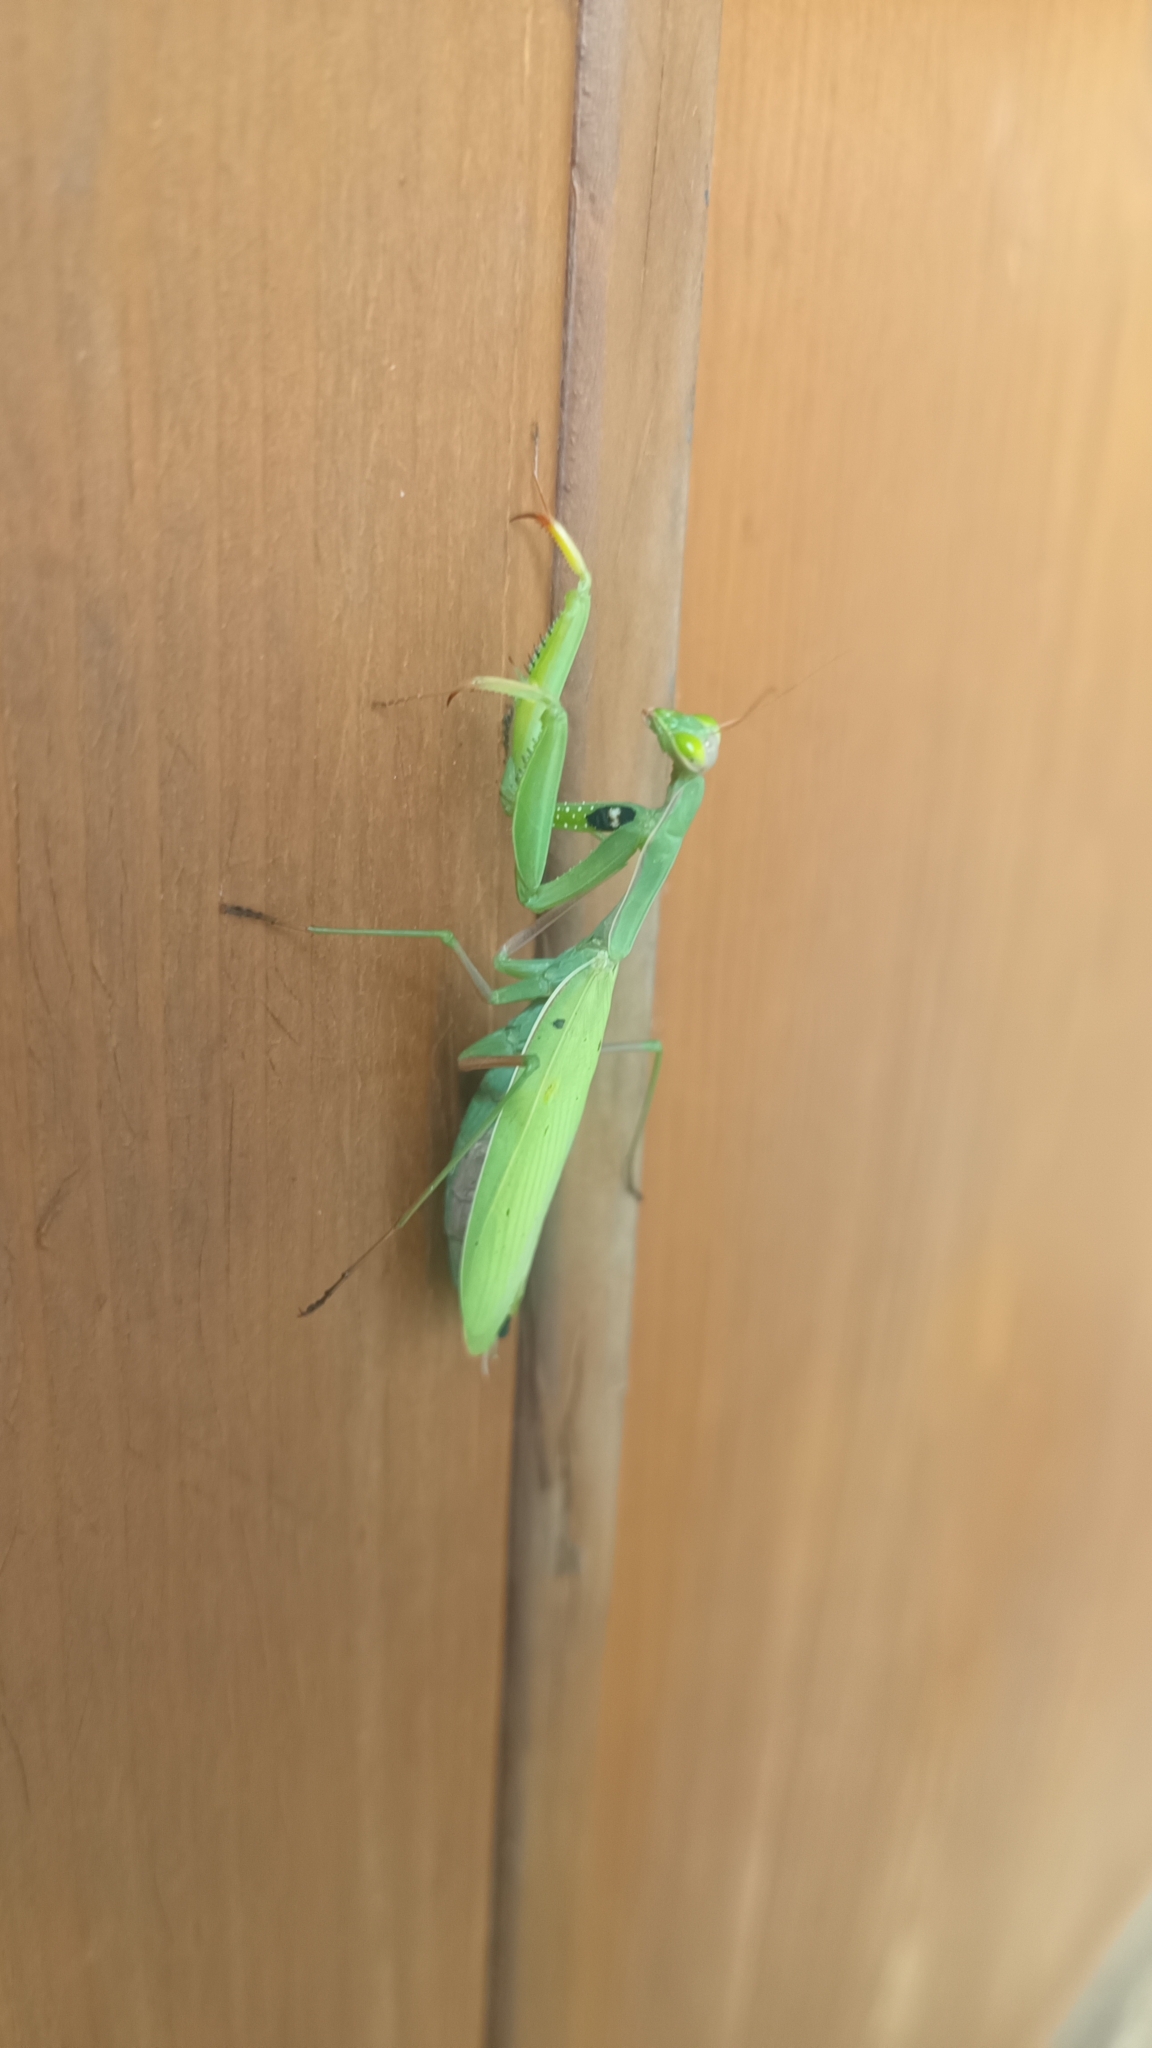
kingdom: Animalia
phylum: Arthropoda
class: Insecta
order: Mantodea
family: Mantidae
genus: Mantis
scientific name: Mantis religiosa
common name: Praying mantis
